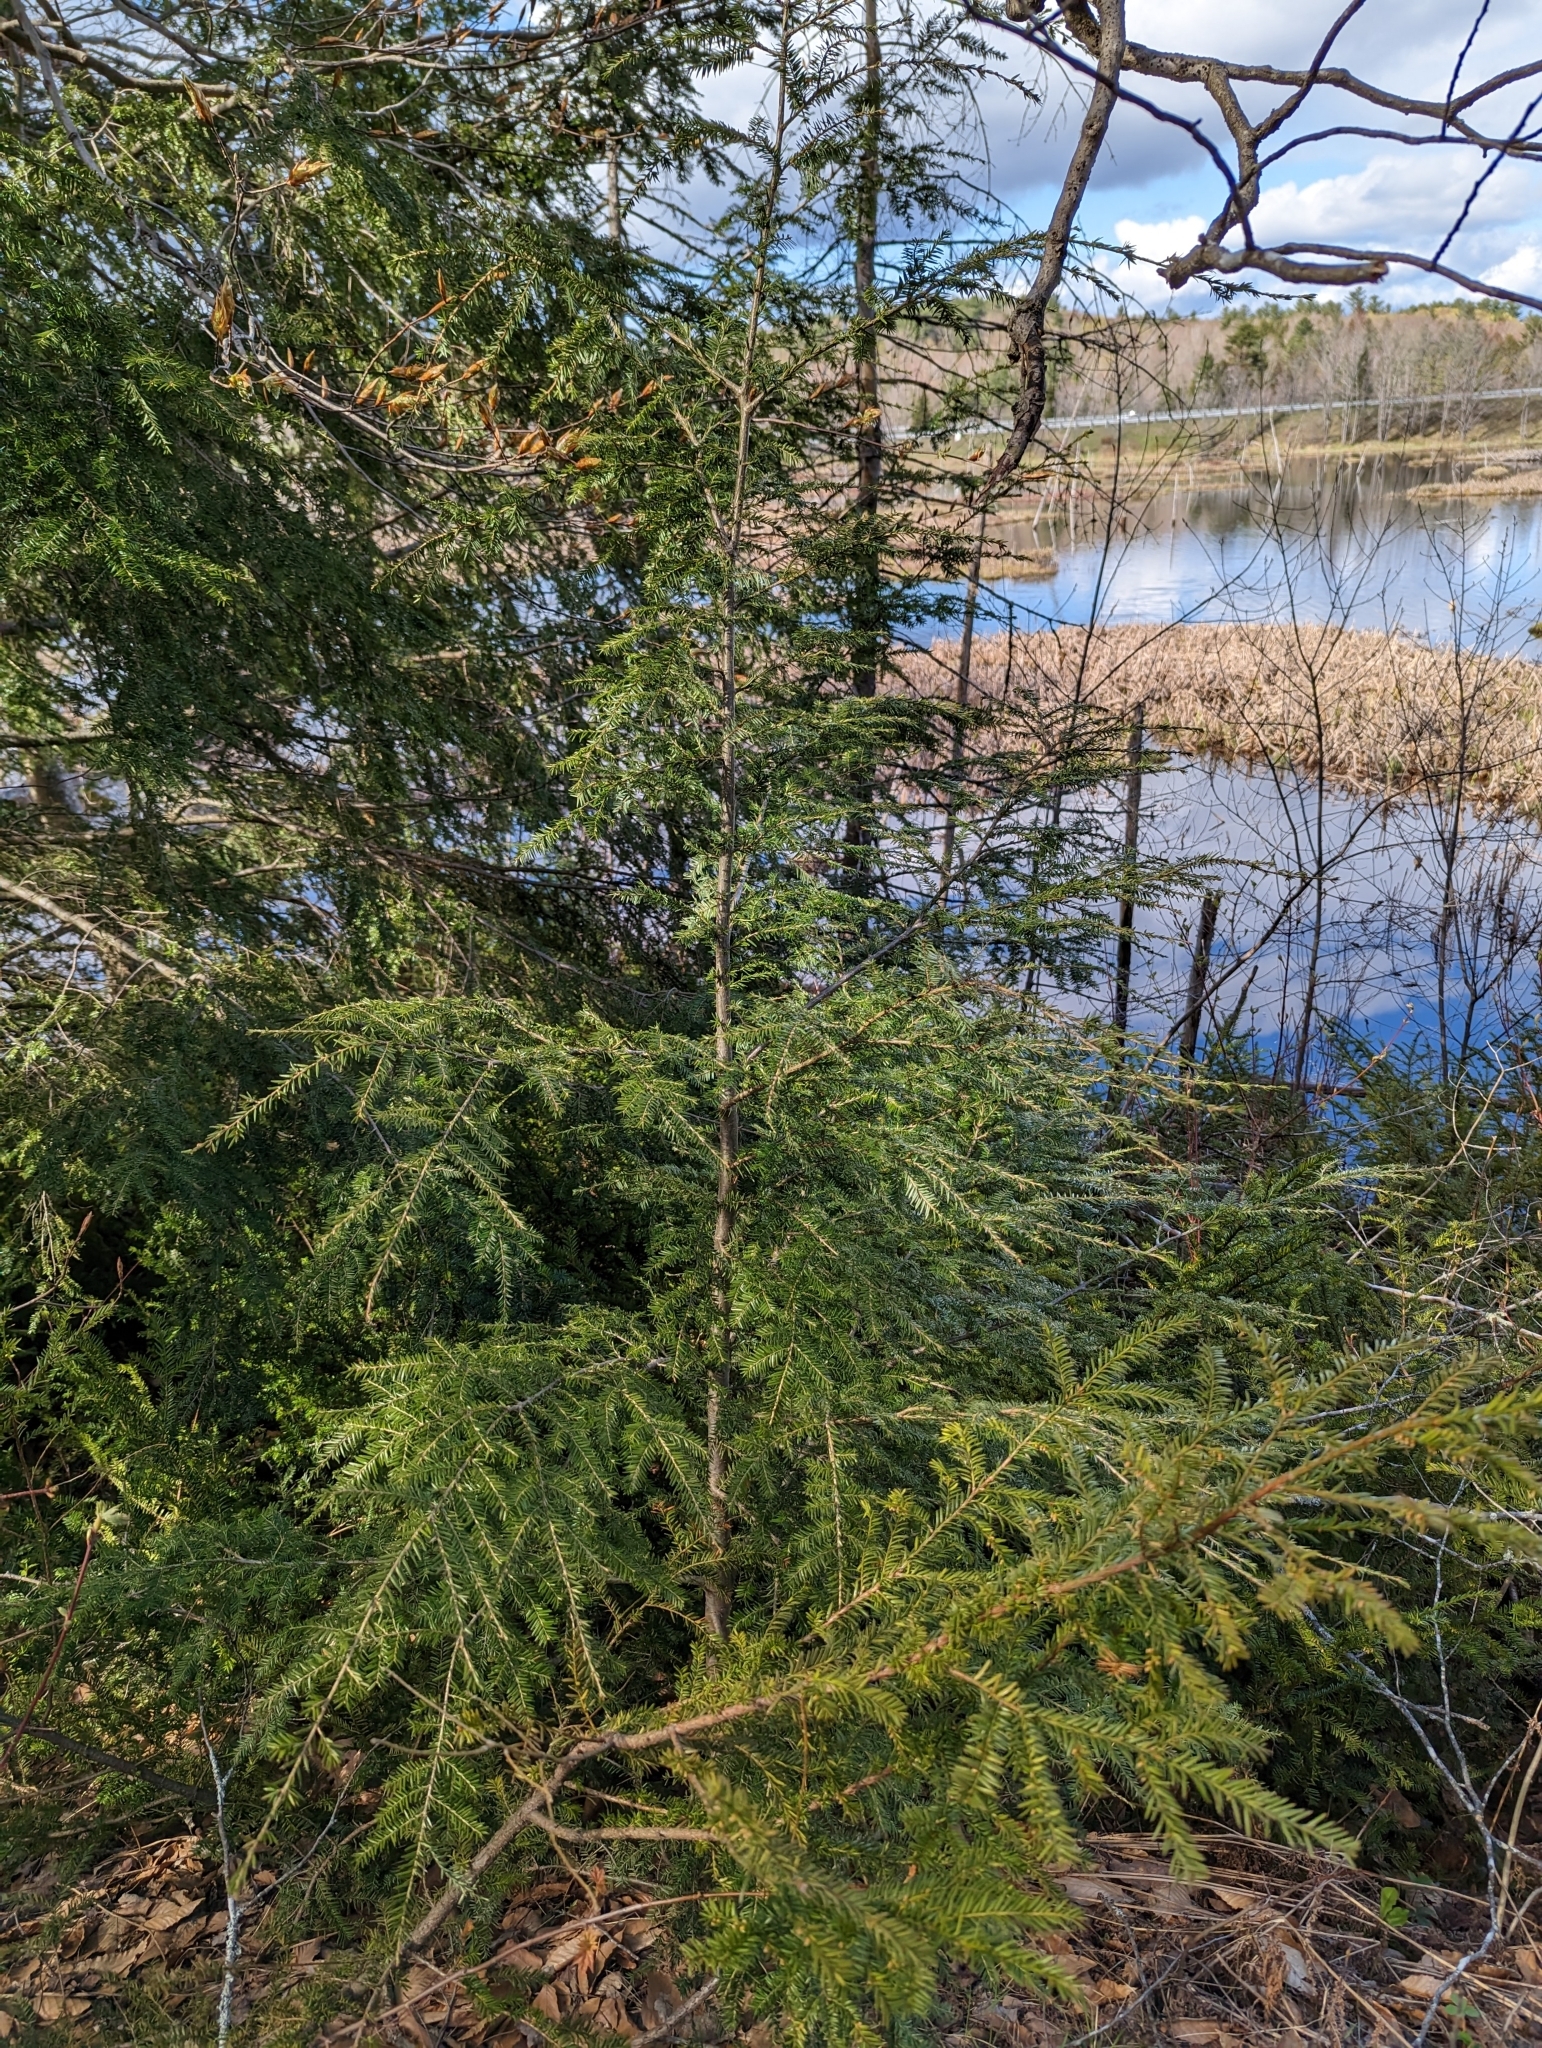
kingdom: Plantae
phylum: Tracheophyta
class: Pinopsida
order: Pinales
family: Pinaceae
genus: Tsuga
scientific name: Tsuga canadensis
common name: Eastern hemlock
